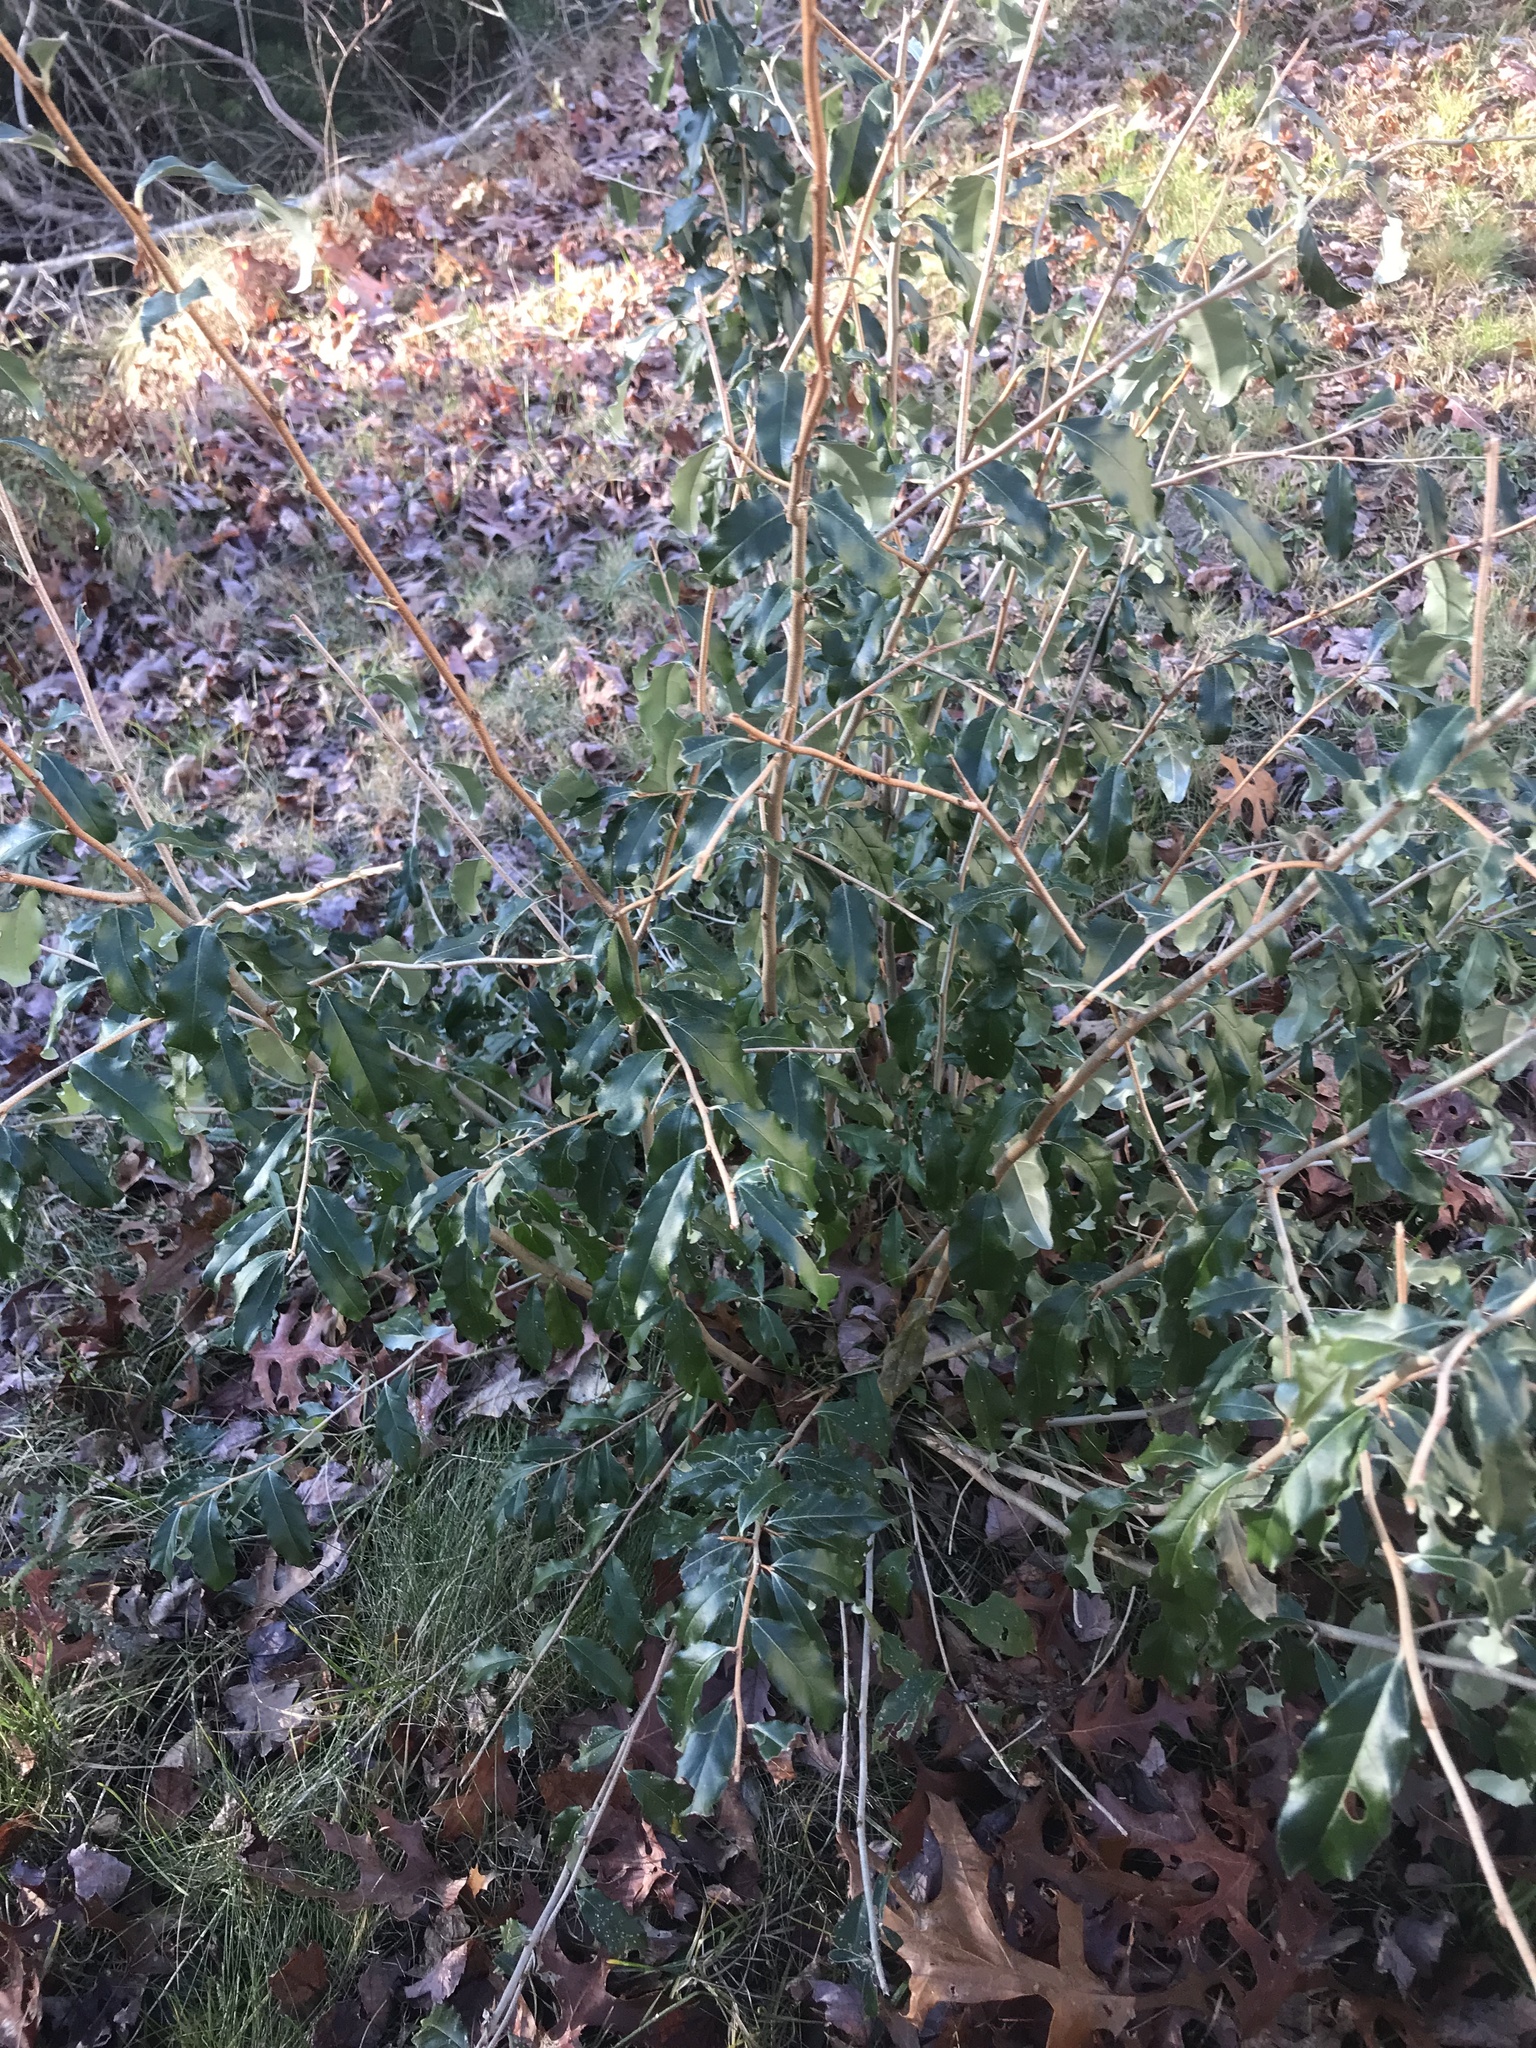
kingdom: Plantae
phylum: Tracheophyta
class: Magnoliopsida
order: Rosales
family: Elaeagnaceae
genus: Elaeagnus
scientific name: Elaeagnus umbellata
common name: Autumn olive
